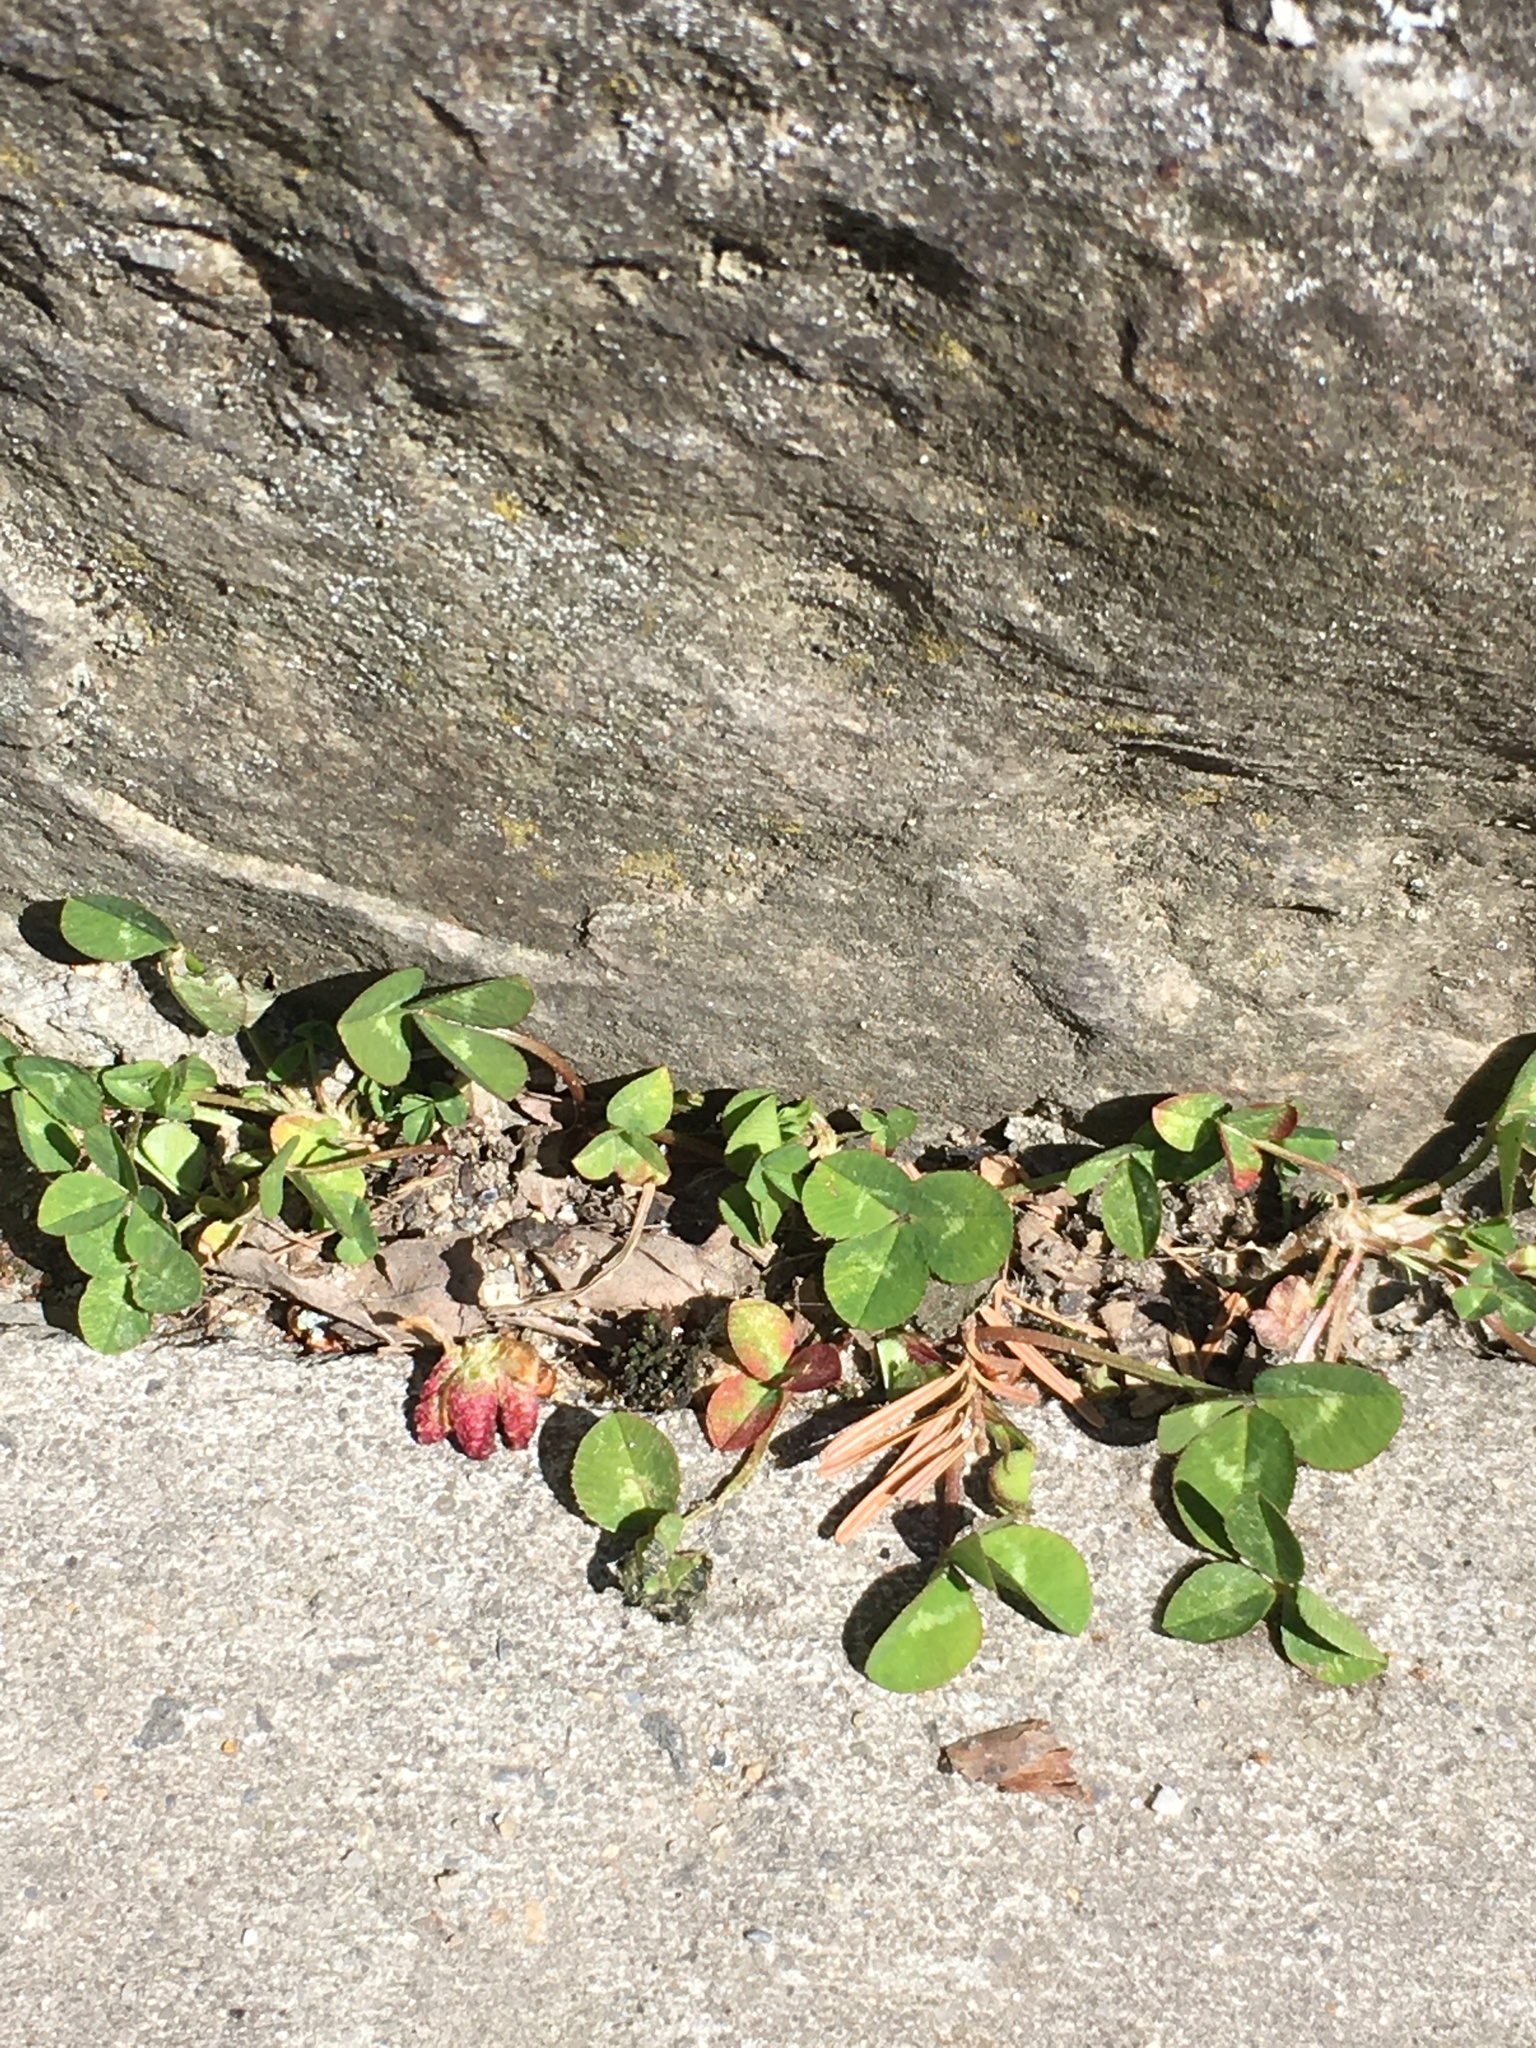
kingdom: Plantae
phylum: Tracheophyta
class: Magnoliopsida
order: Fabales
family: Fabaceae
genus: Trifolium
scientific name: Trifolium repens
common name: White clover
